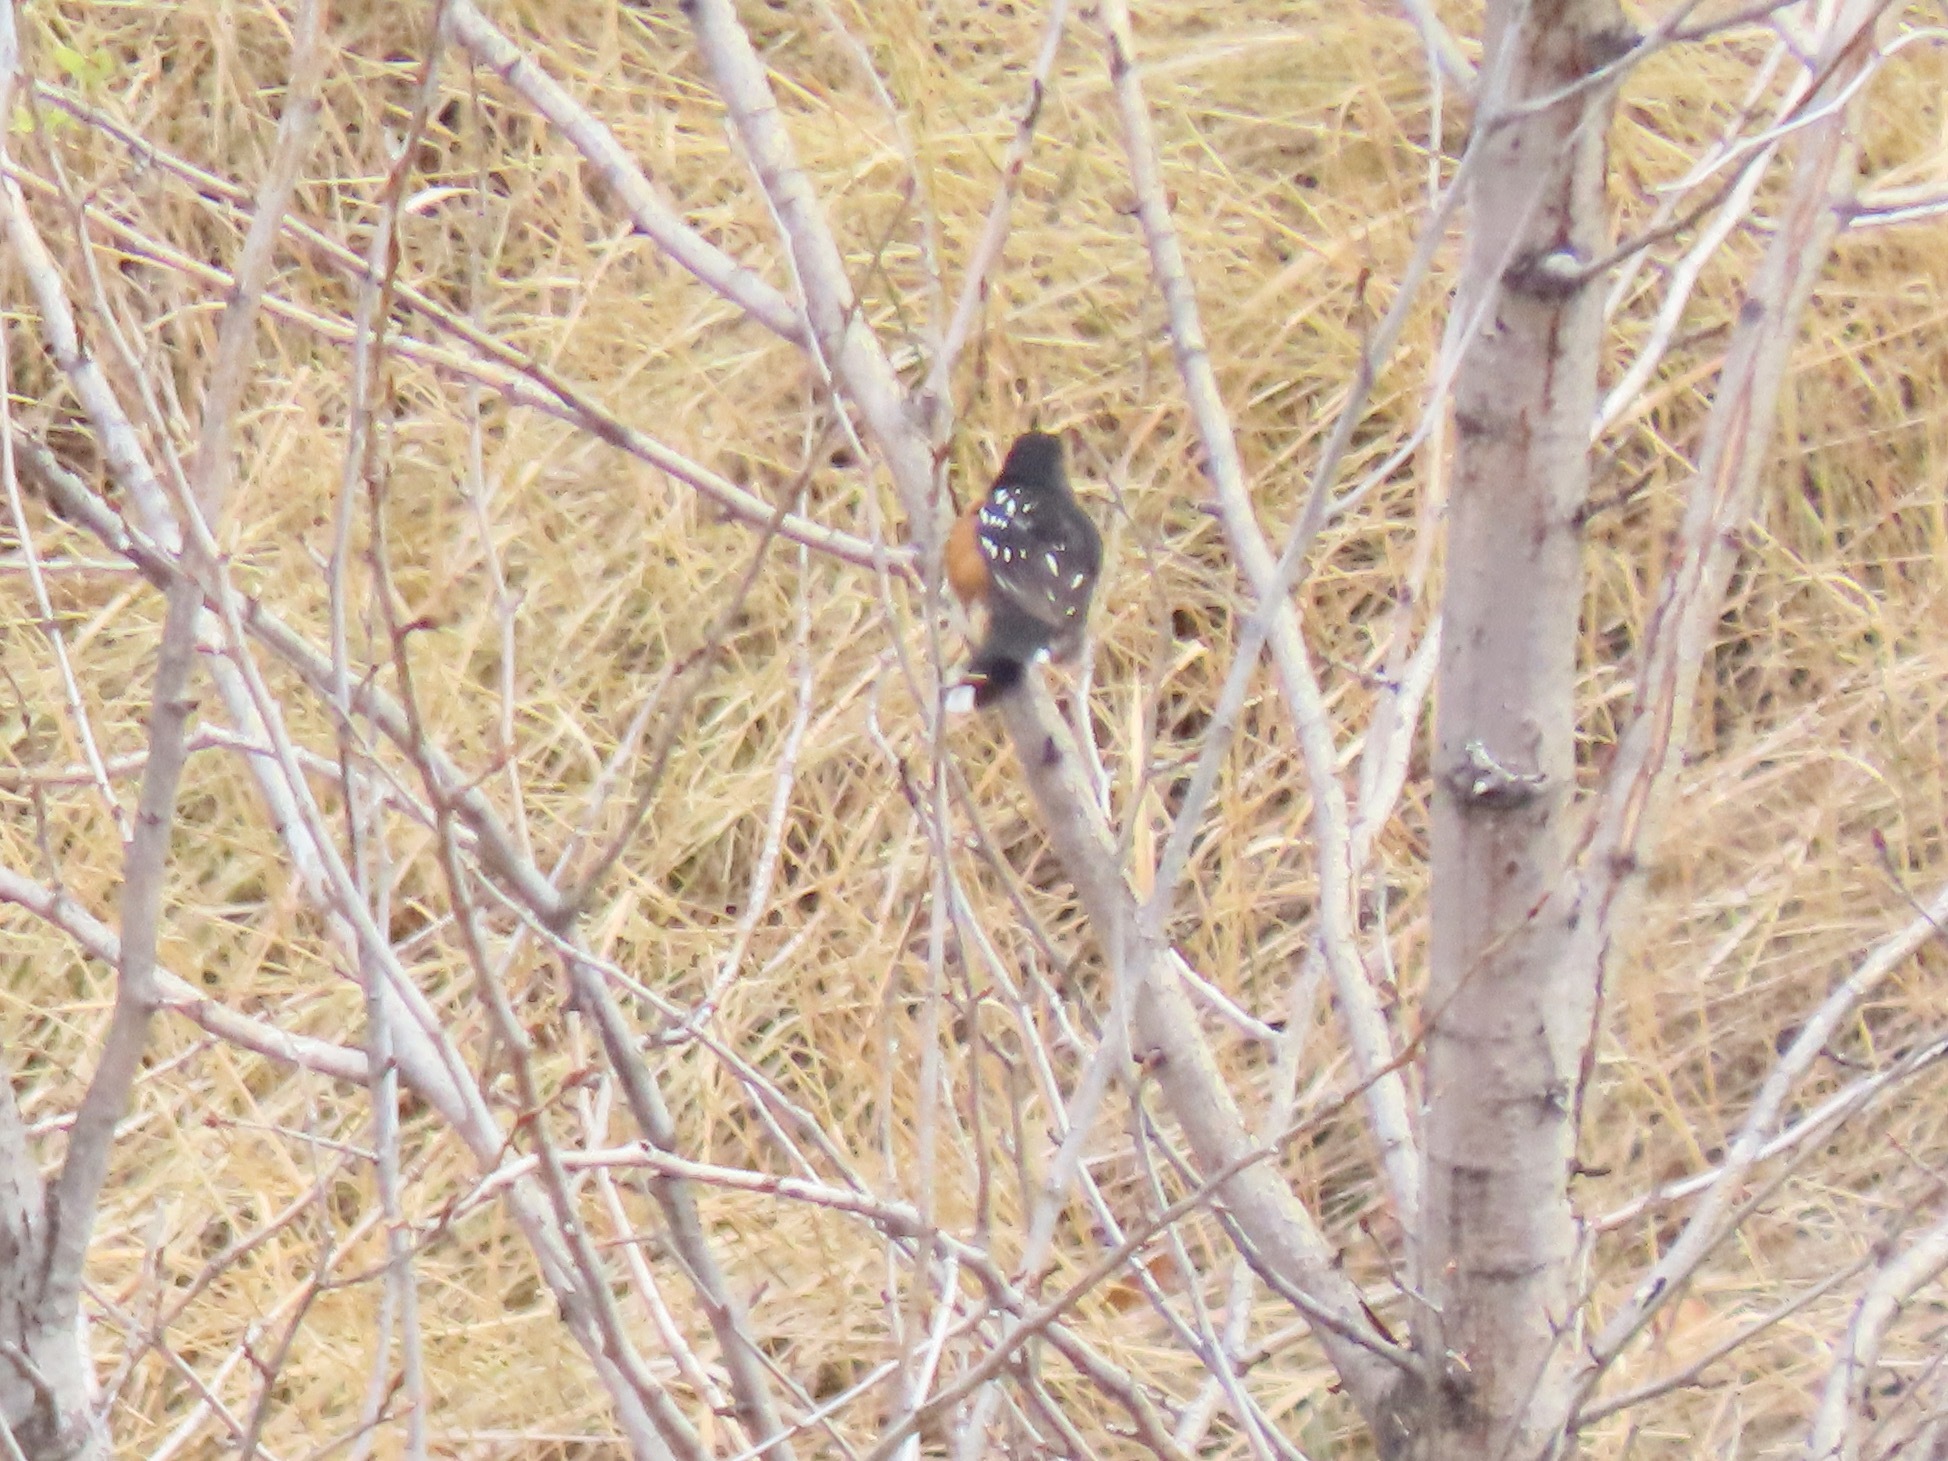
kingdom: Animalia
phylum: Chordata
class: Aves
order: Passeriformes
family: Passerellidae
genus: Pipilo
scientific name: Pipilo maculatus
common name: Spotted towhee
